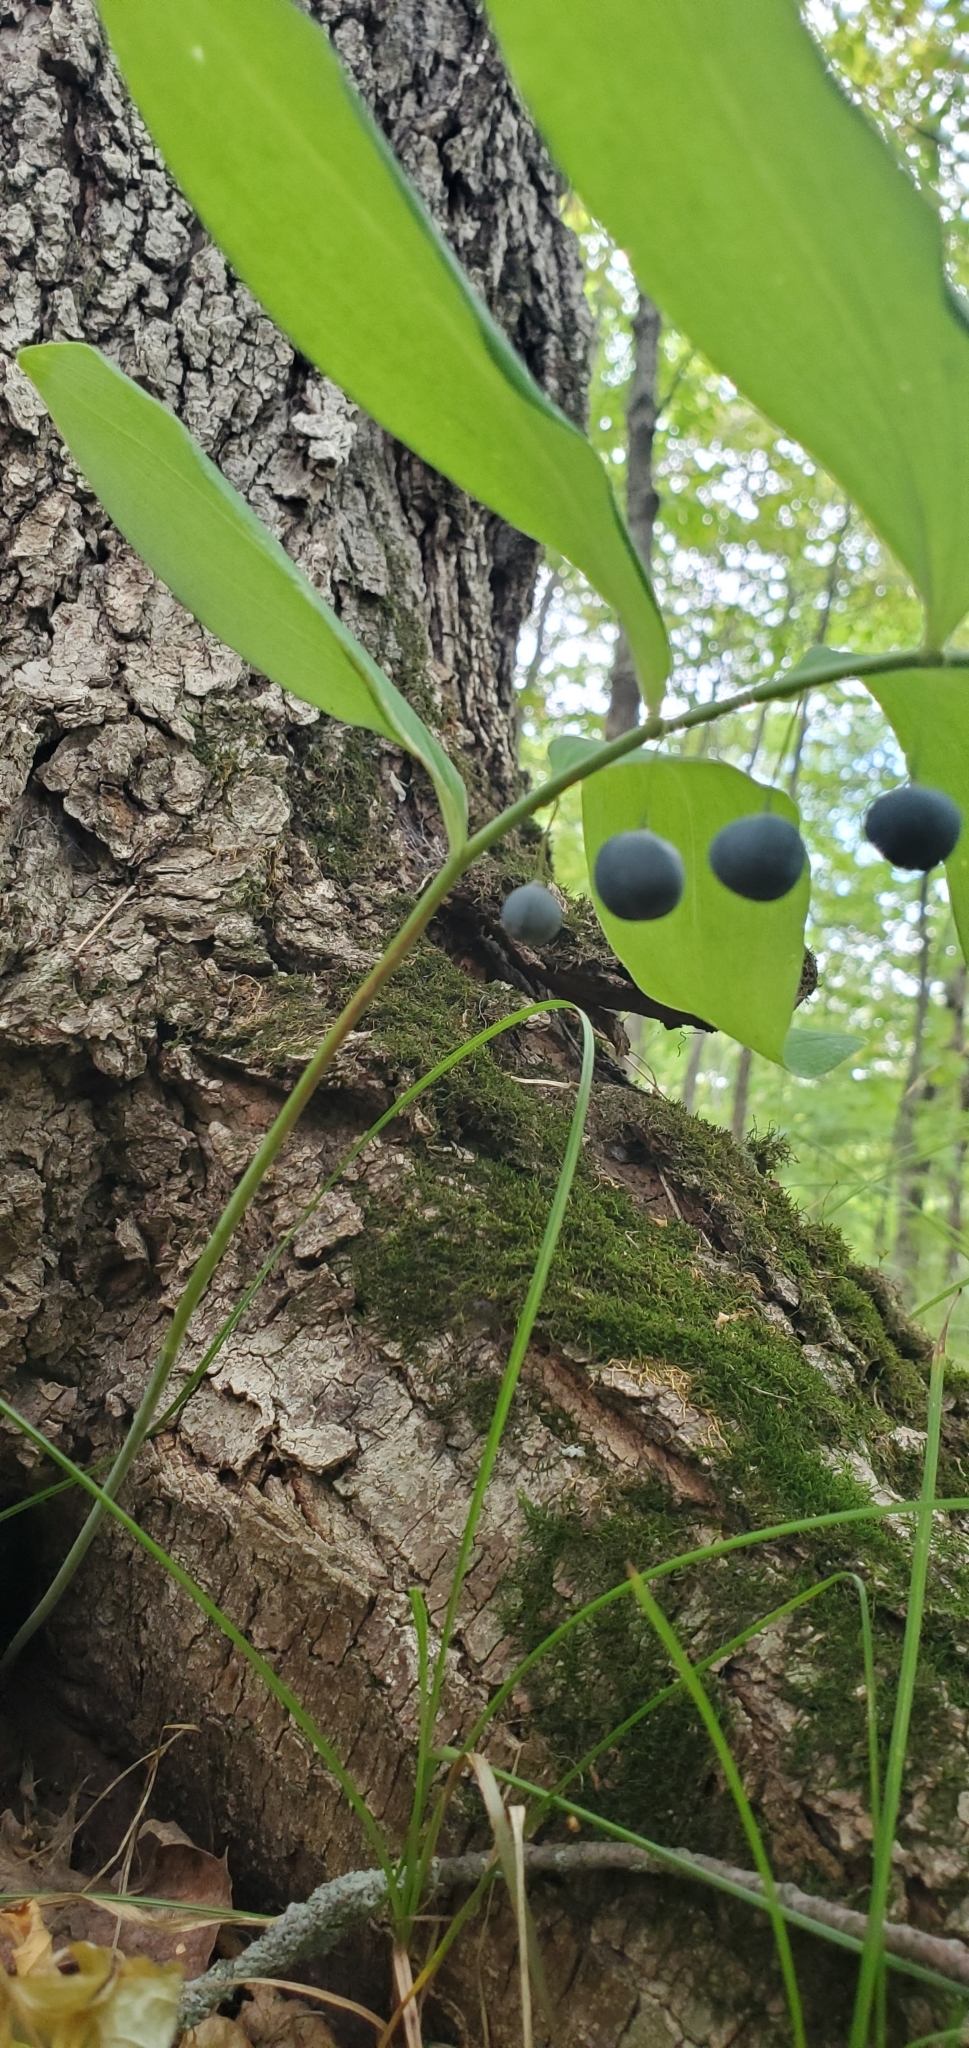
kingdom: Plantae
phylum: Tracheophyta
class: Liliopsida
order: Asparagales
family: Asparagaceae
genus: Polygonatum
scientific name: Polygonatum pubescens
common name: Downy solomon's seal
